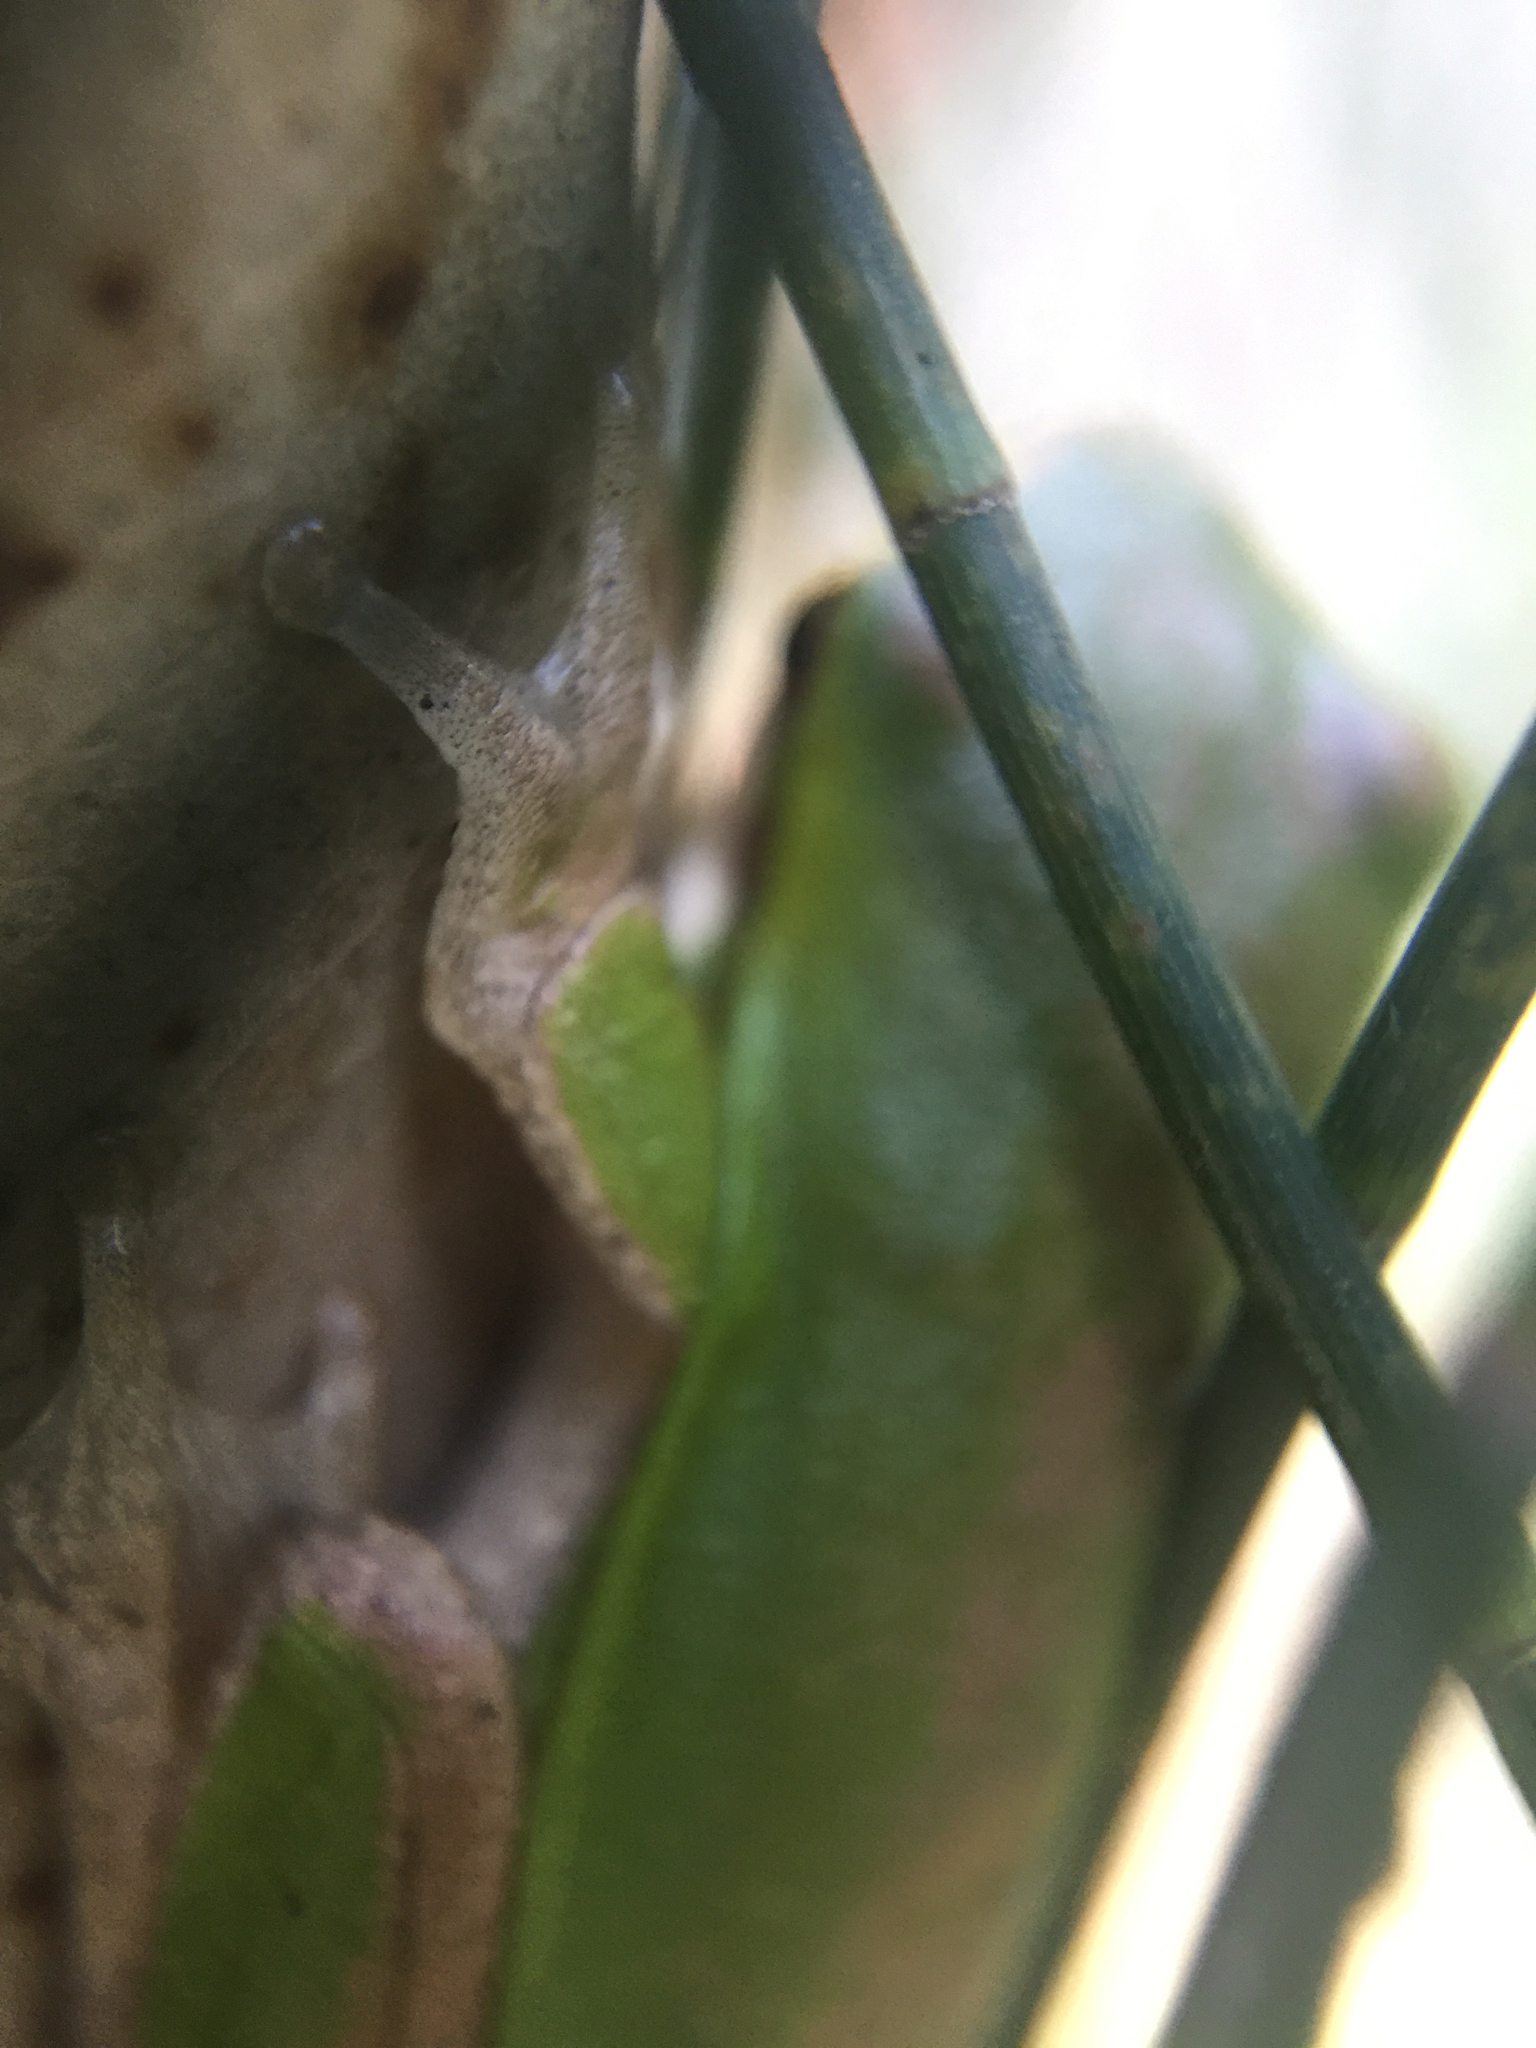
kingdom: Animalia
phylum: Chordata
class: Amphibia
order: Anura
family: Pelodryadidae
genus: Litoria
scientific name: Litoria fallax
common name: Eastern dwarf treefrog
